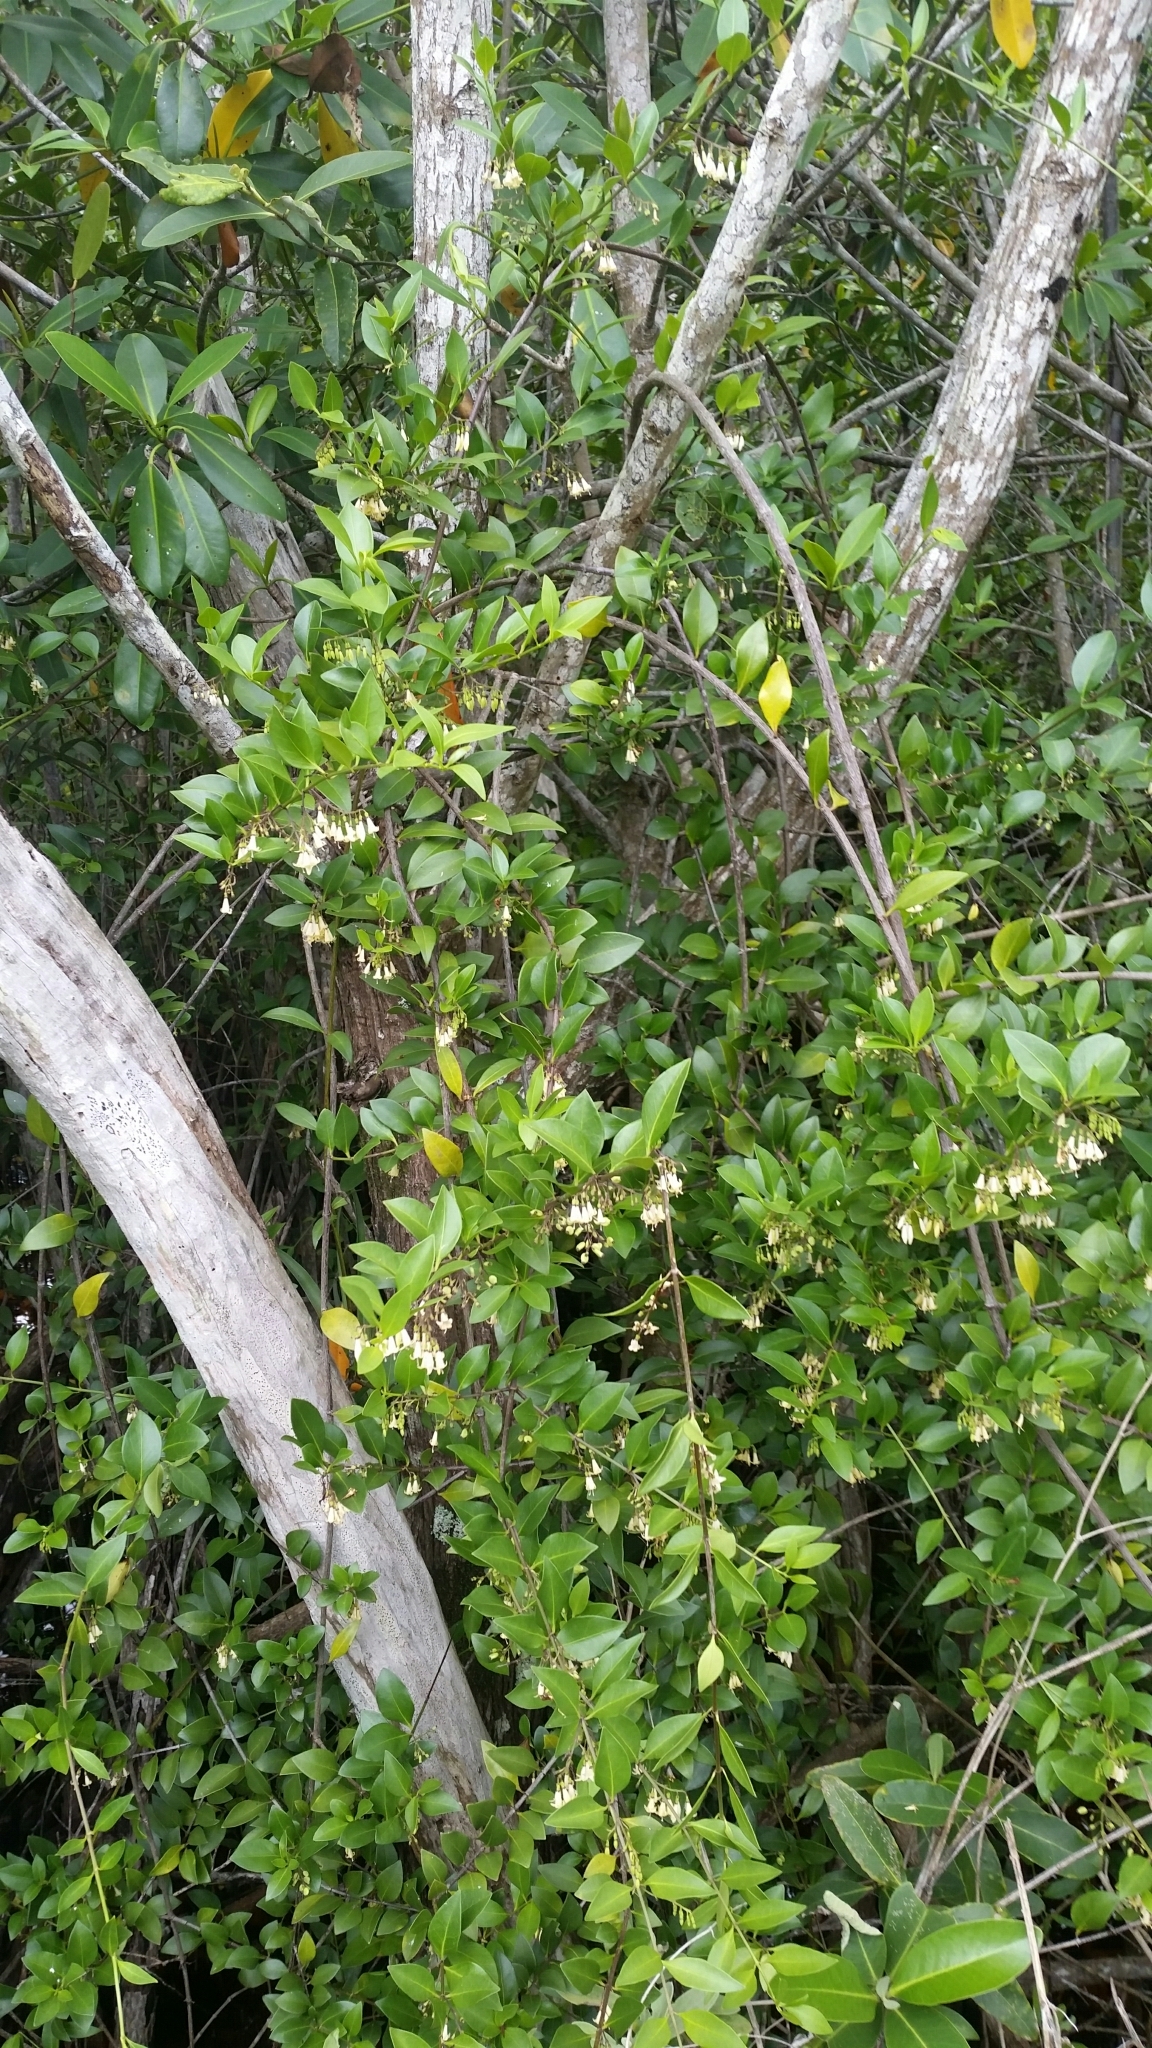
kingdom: Plantae
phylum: Tracheophyta
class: Magnoliopsida
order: Gentianales
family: Rubiaceae
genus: Chiococca
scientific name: Chiococca alba
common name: Snowberry
